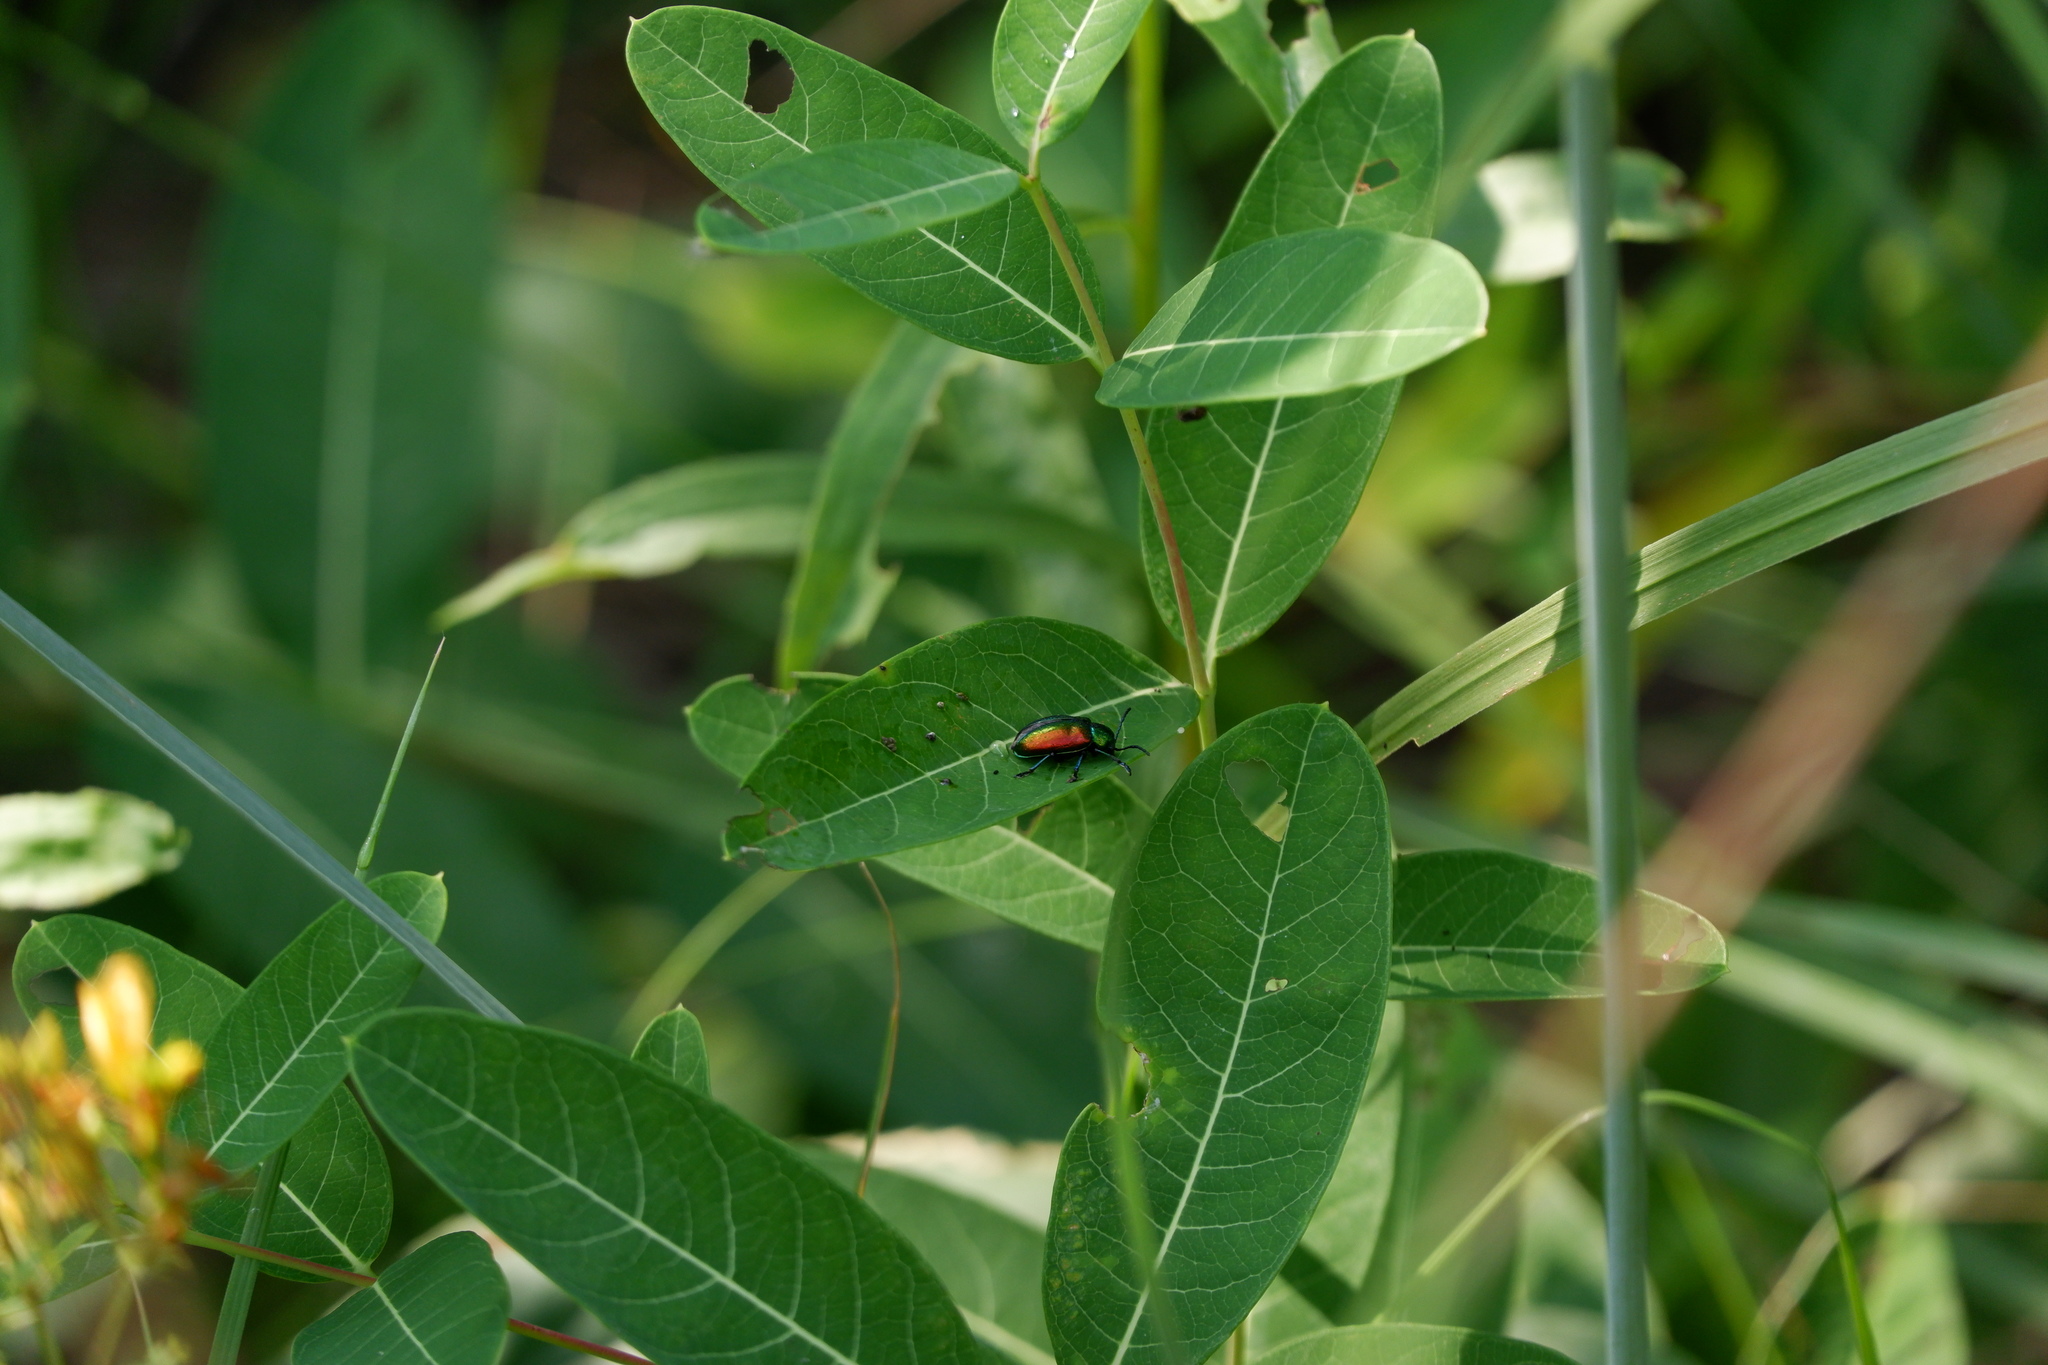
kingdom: Animalia
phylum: Arthropoda
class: Insecta
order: Coleoptera
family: Chrysomelidae
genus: Chrysochus
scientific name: Chrysochus auratus
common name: Dogbane leaf beetle
